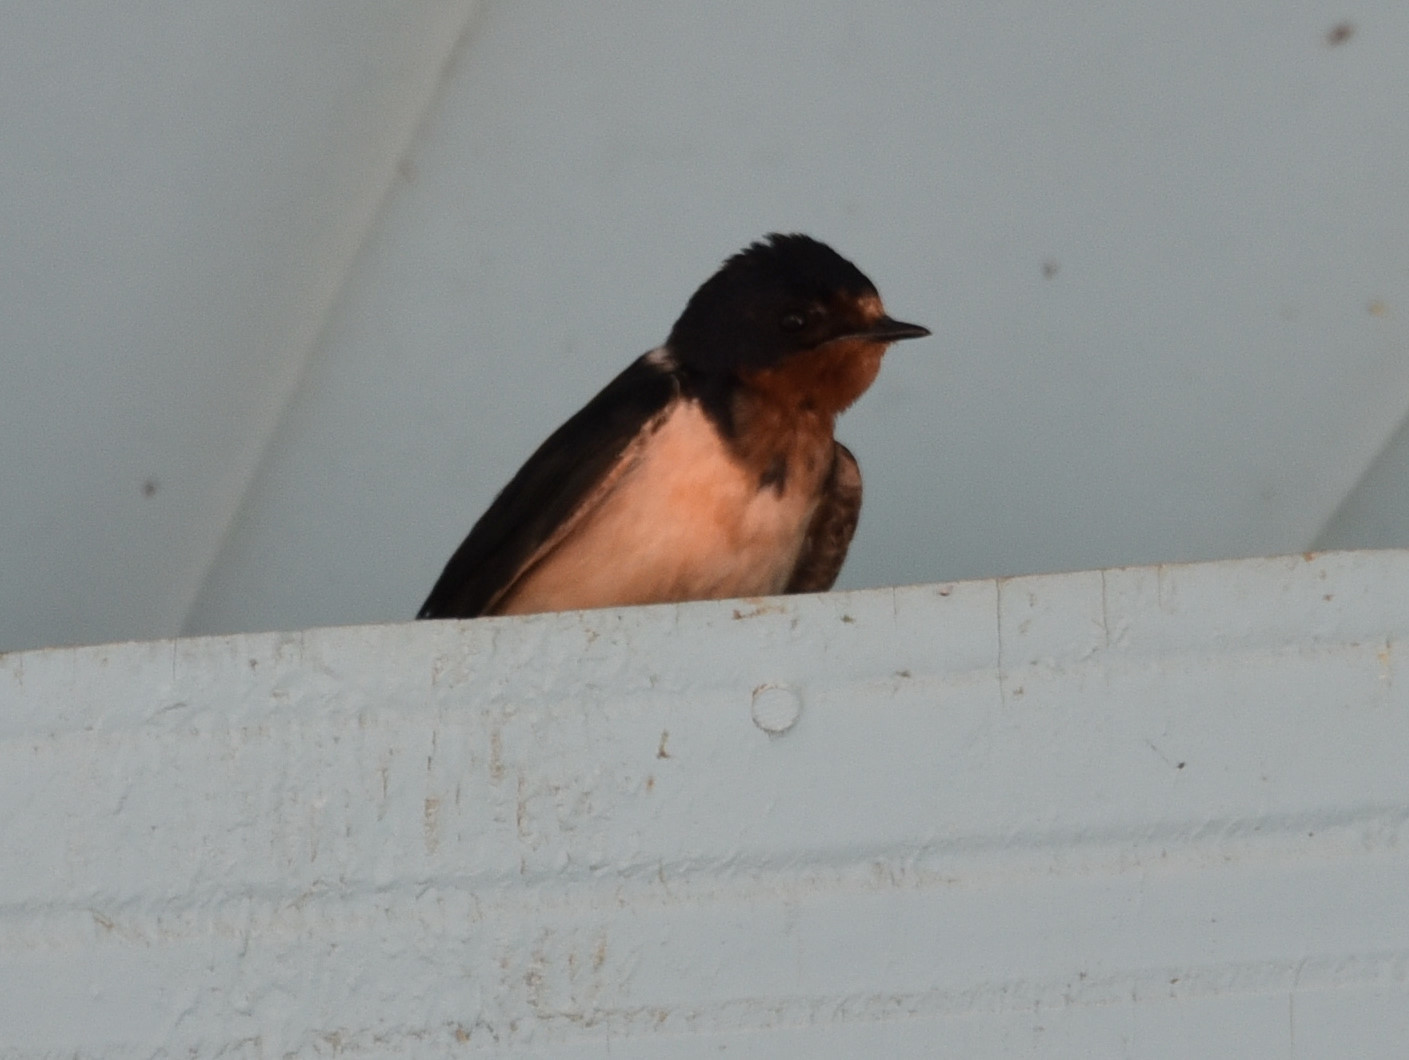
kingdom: Animalia
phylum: Chordata
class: Aves
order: Passeriformes
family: Hirundinidae
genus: Hirundo
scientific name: Hirundo rustica
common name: Barn swallow
